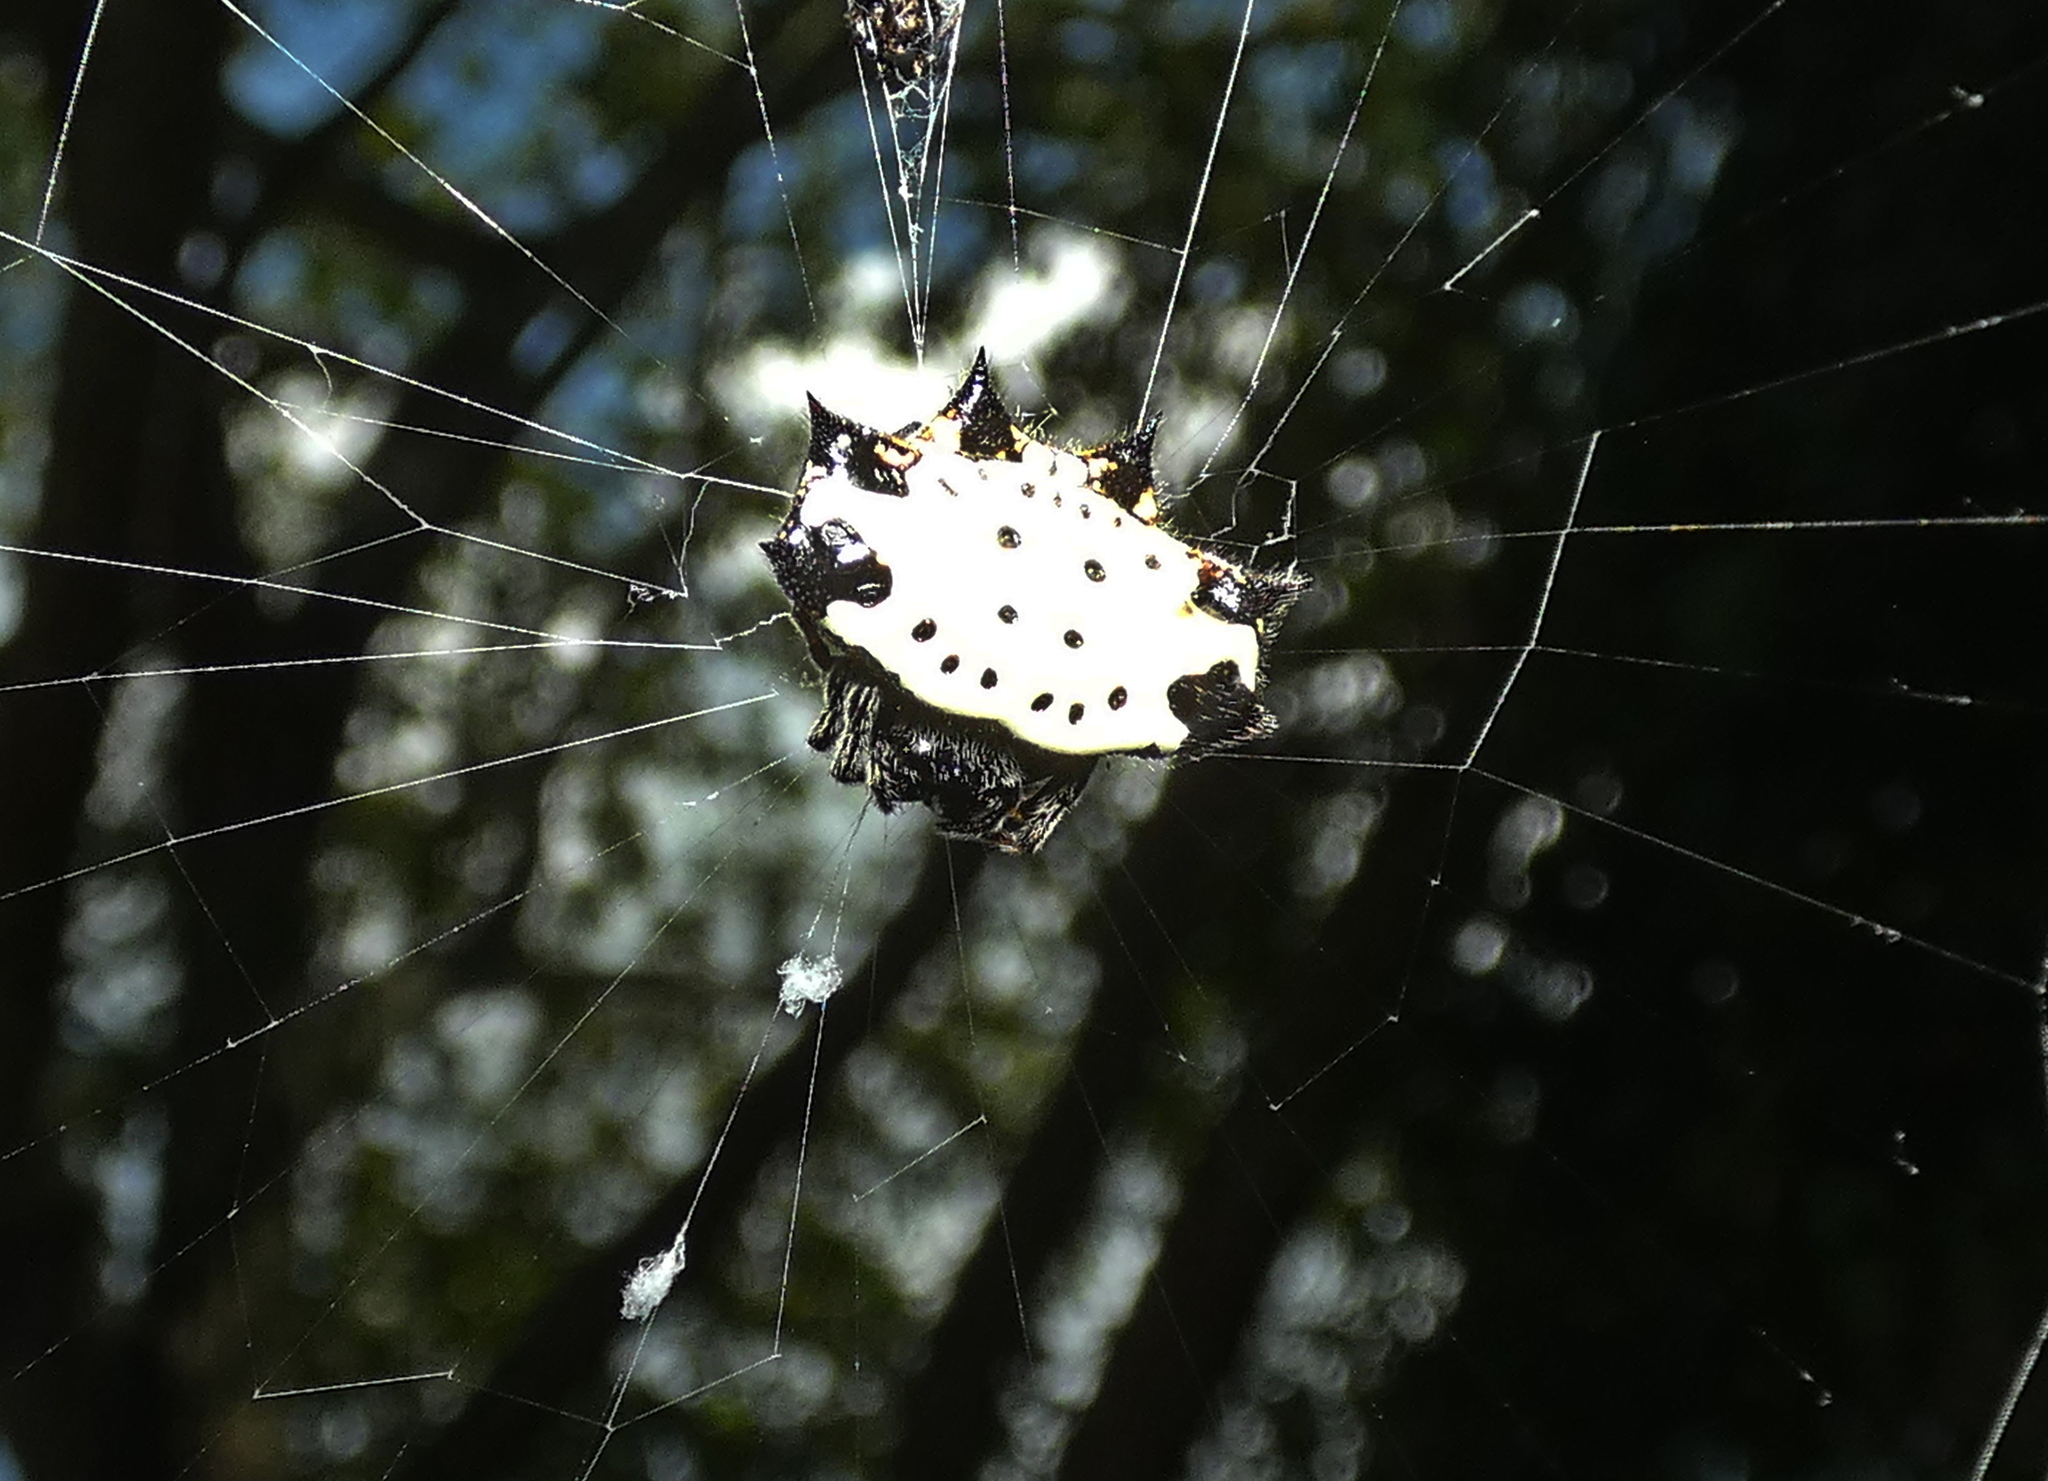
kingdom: Animalia
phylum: Arthropoda
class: Arachnida
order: Araneae
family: Araneidae
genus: Gasteracantha
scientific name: Gasteracantha cancriformis
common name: Orb weavers
